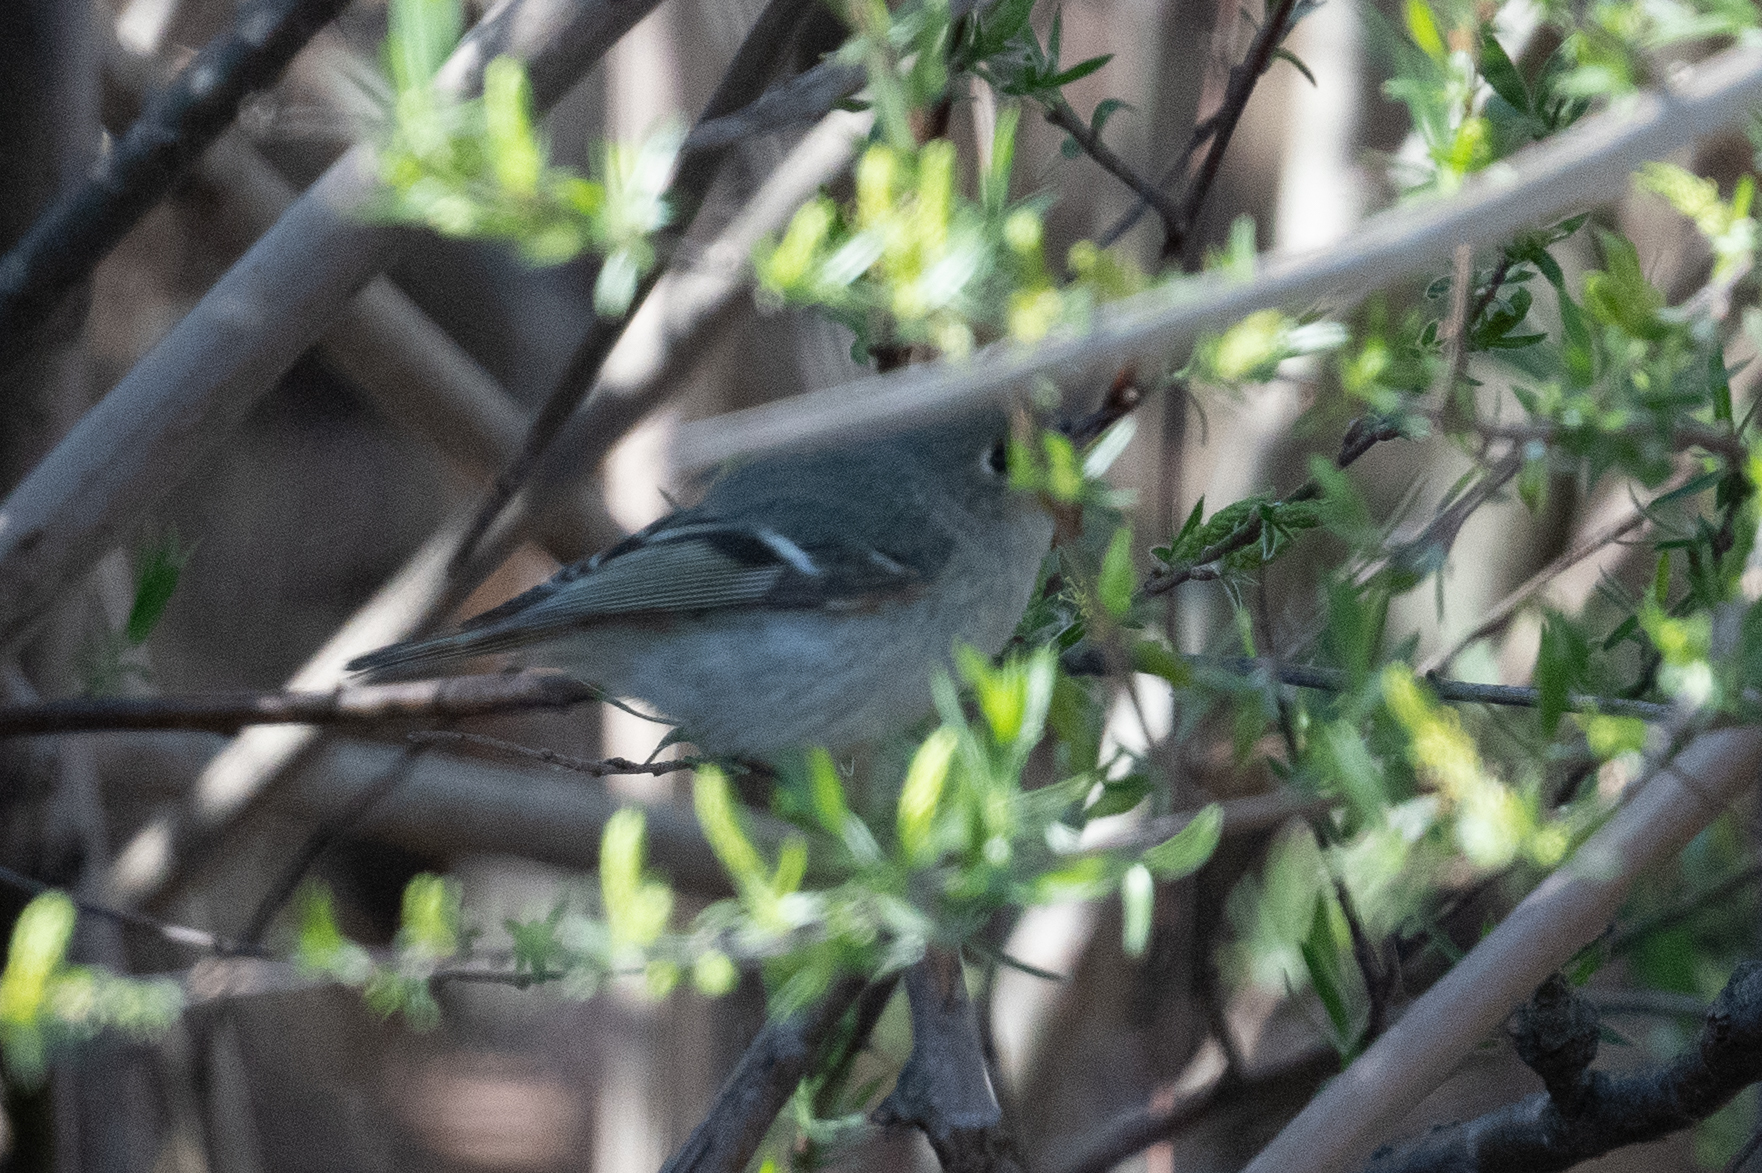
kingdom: Animalia
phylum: Chordata
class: Aves
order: Passeriformes
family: Regulidae
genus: Regulus
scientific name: Regulus calendula
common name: Ruby-crowned kinglet
